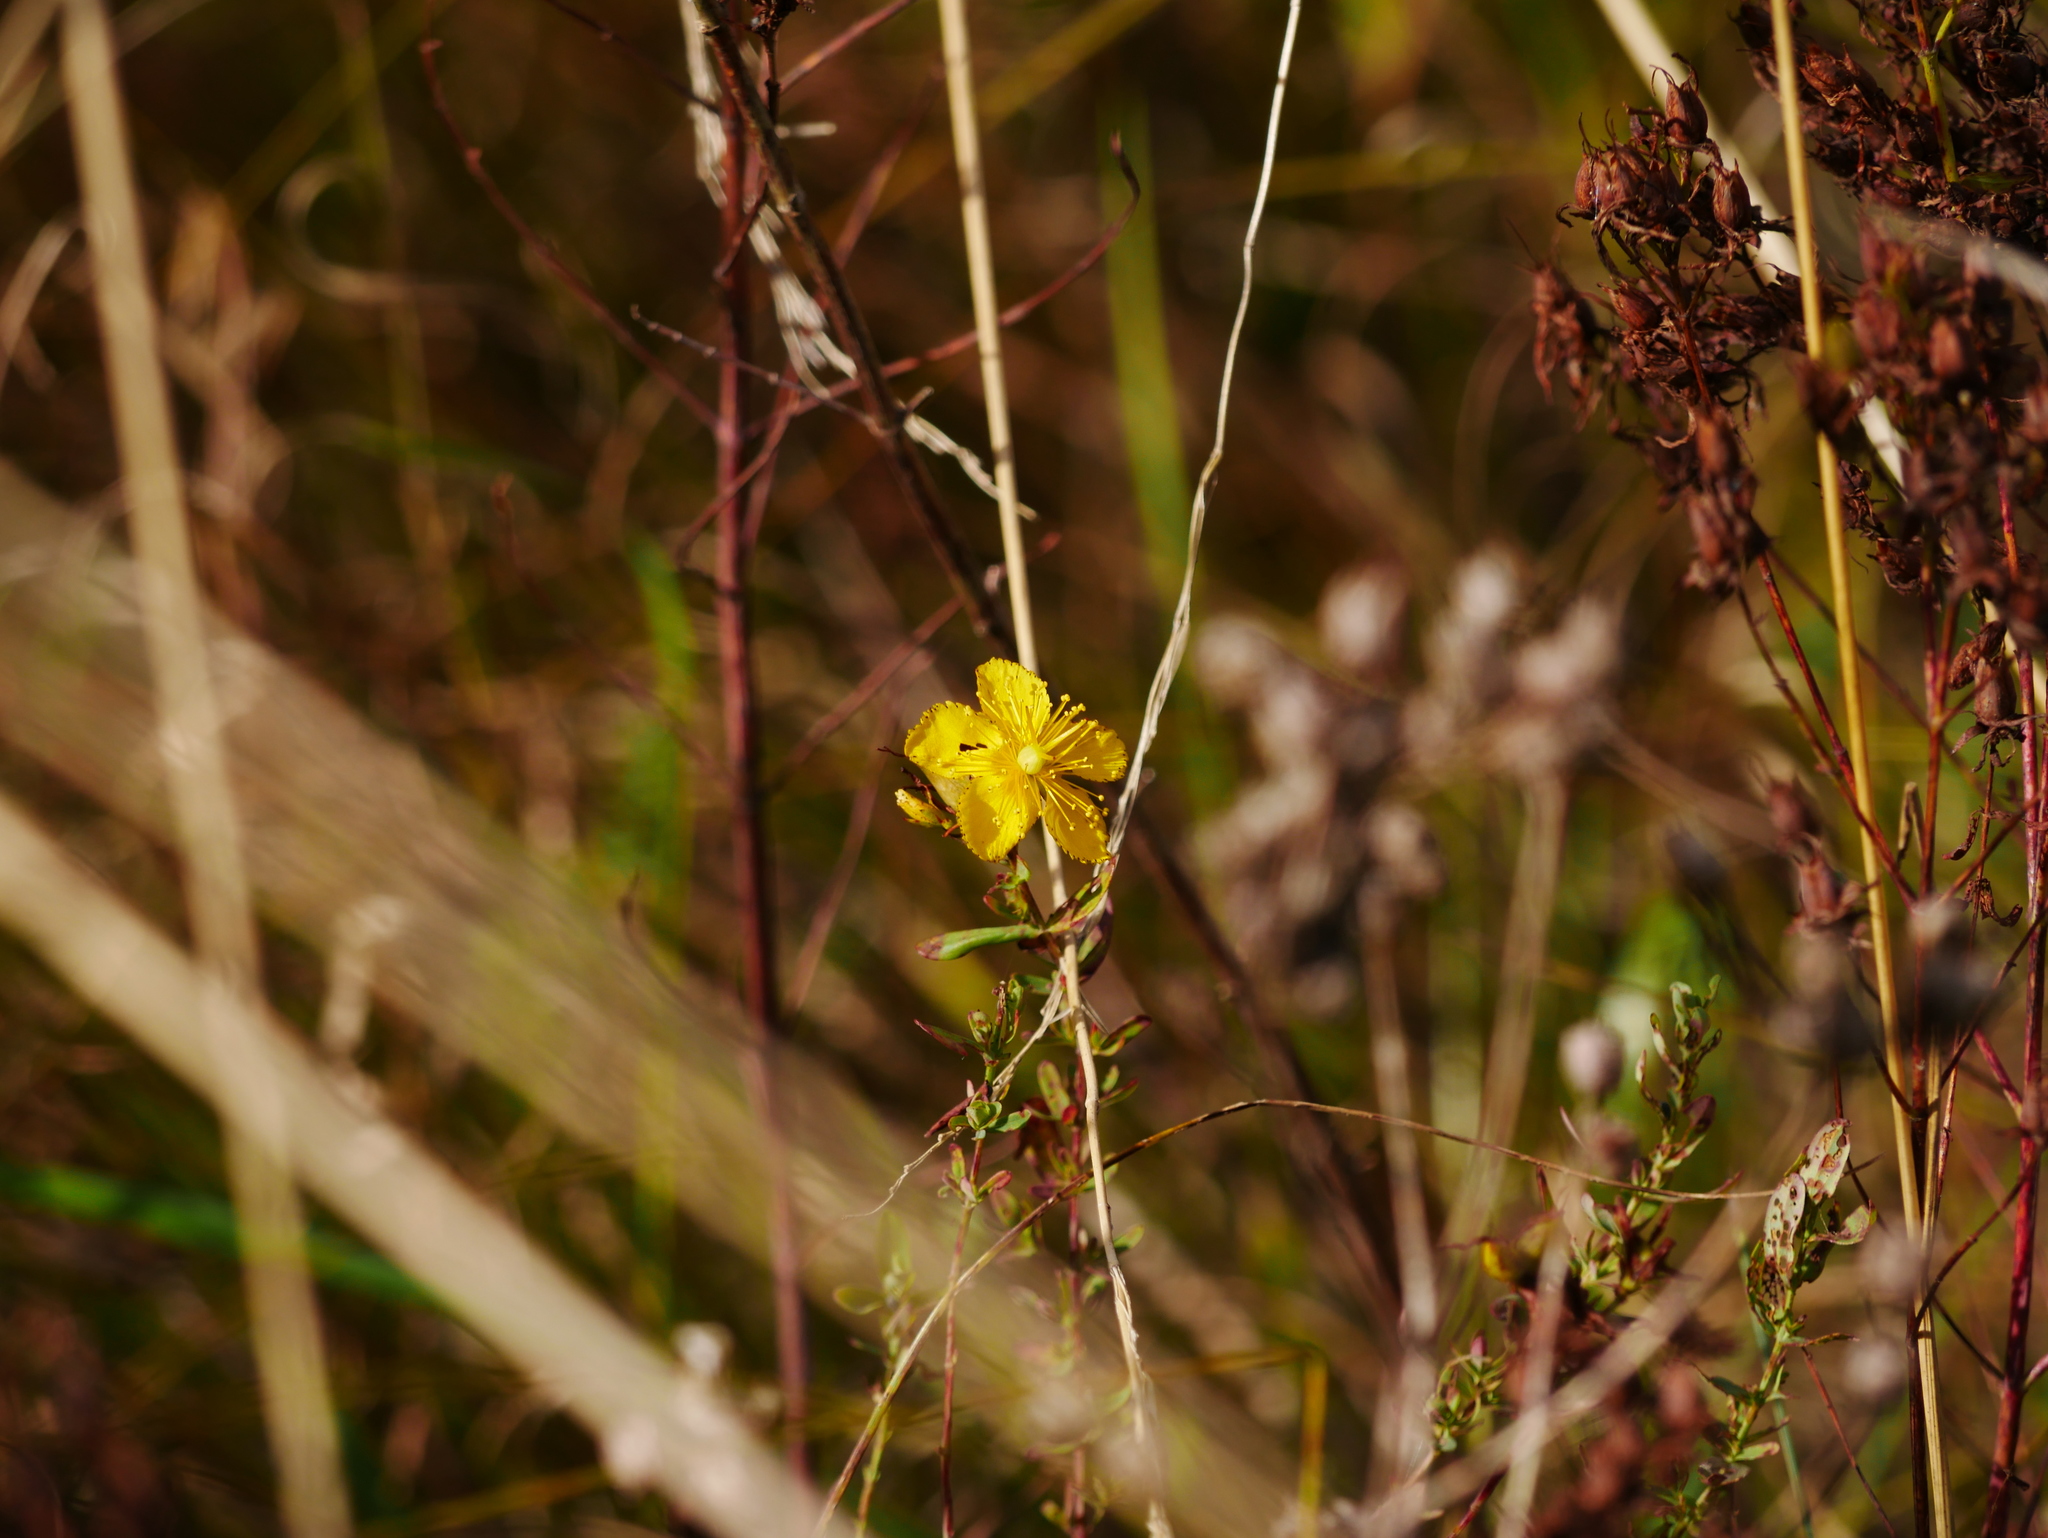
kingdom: Plantae
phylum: Tracheophyta
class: Magnoliopsida
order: Malpighiales
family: Hypericaceae
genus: Hypericum
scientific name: Hypericum perforatum
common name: Common st. johnswort
